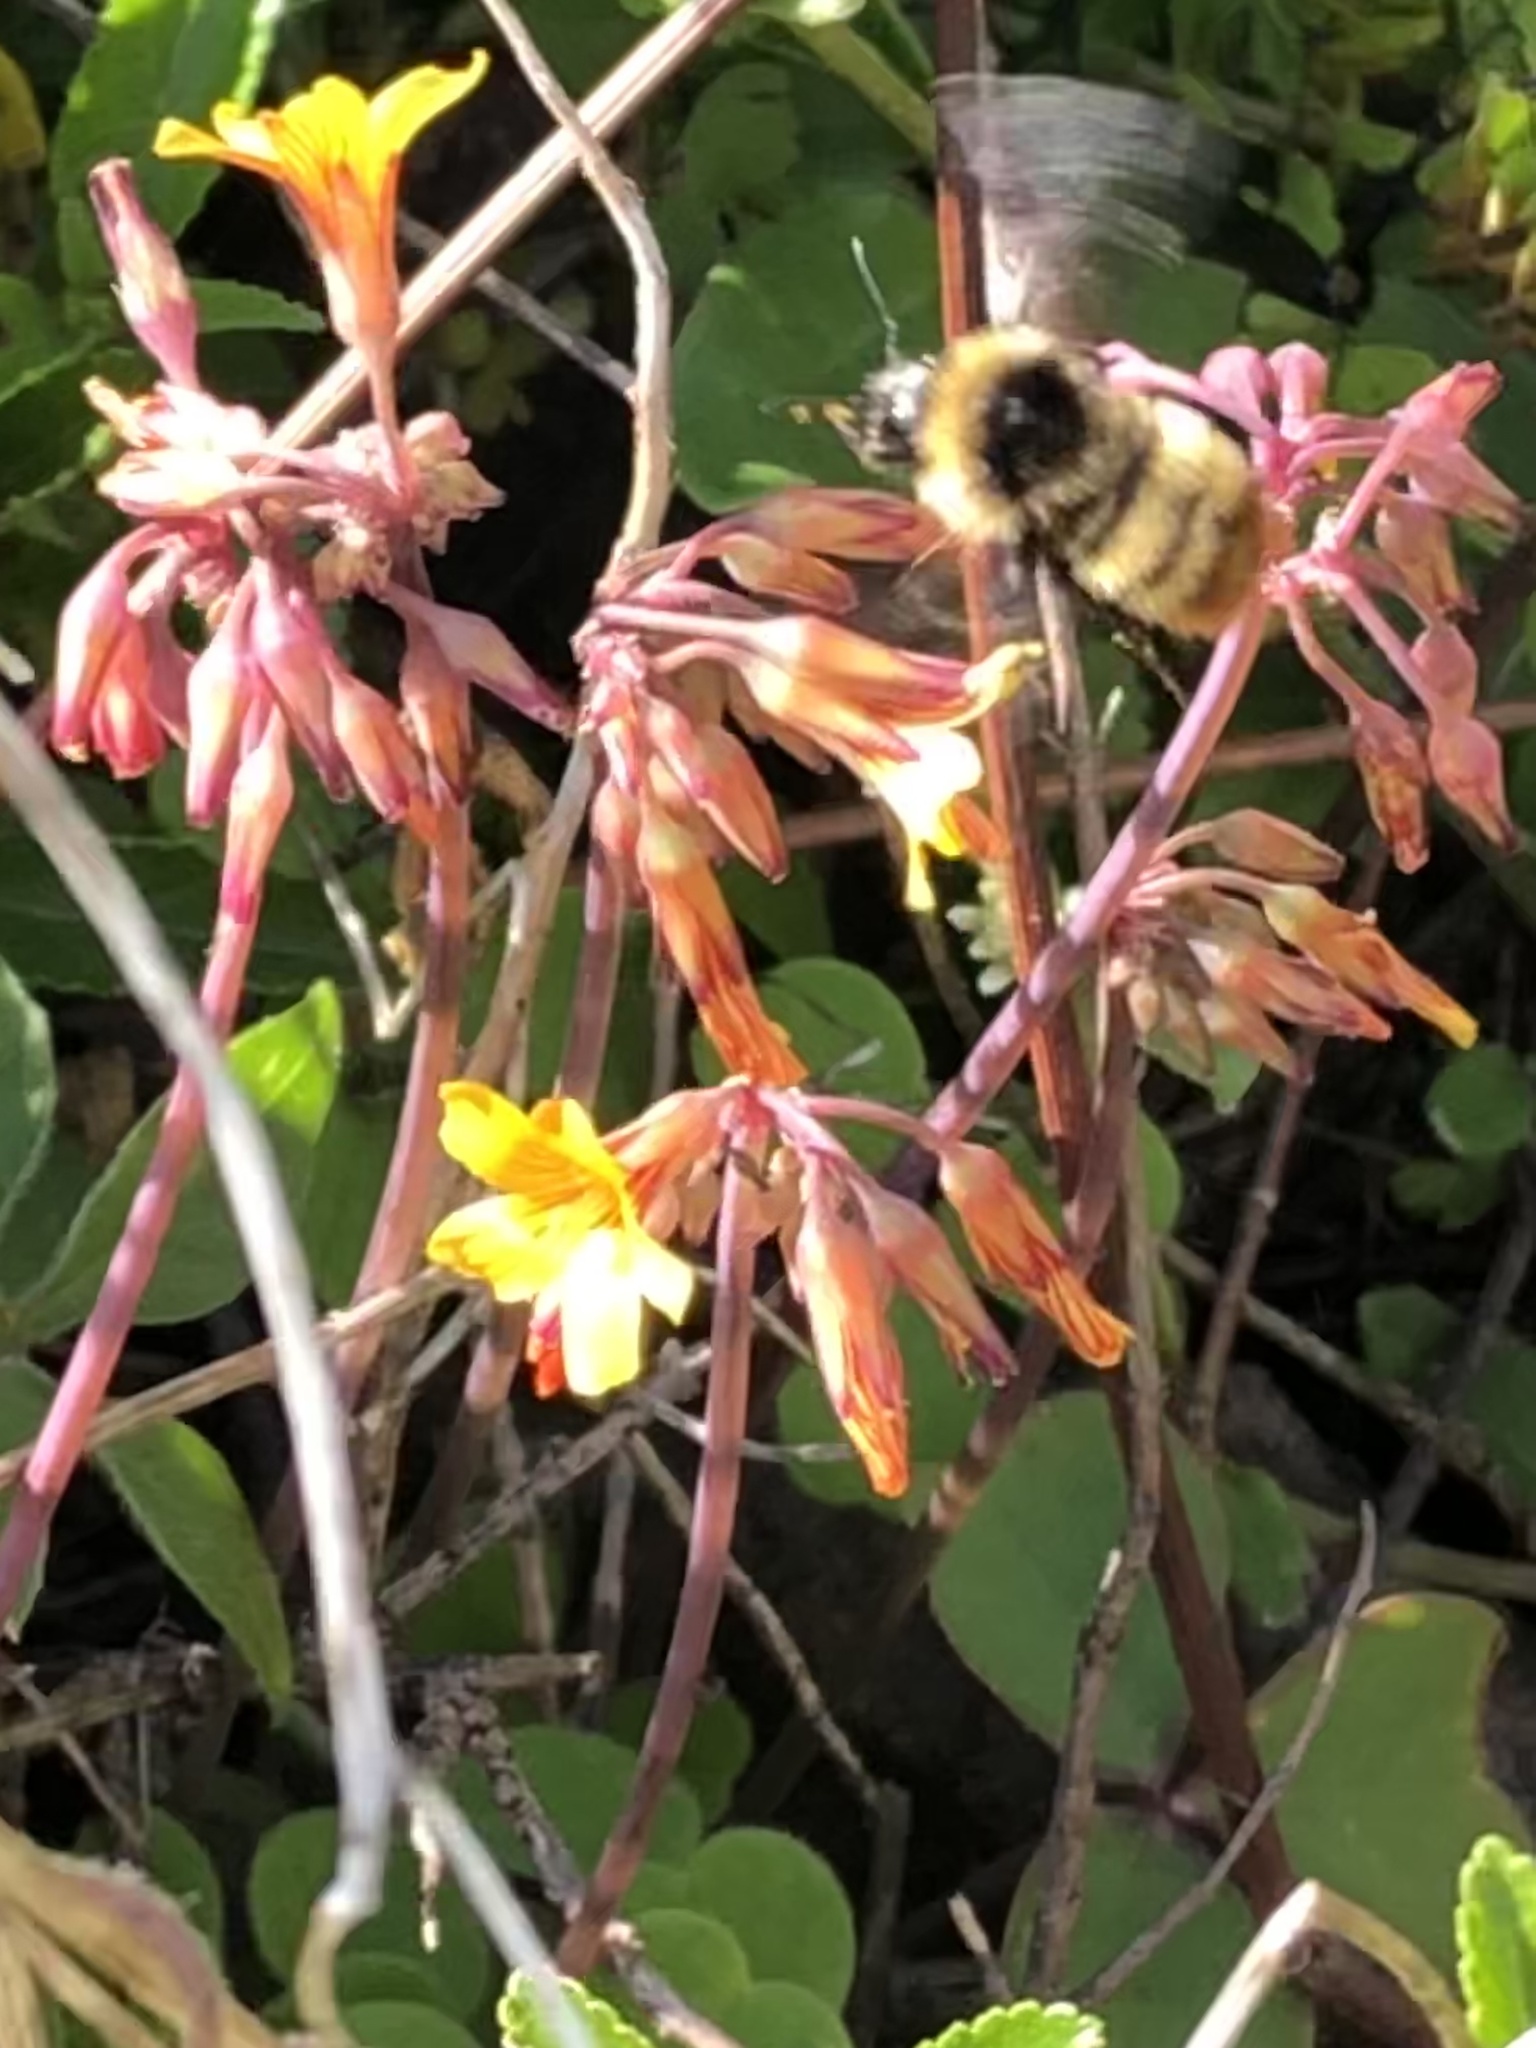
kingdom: Animalia
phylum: Arthropoda
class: Insecta
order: Hymenoptera
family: Apidae
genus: Bombus
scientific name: Bombus opifex
